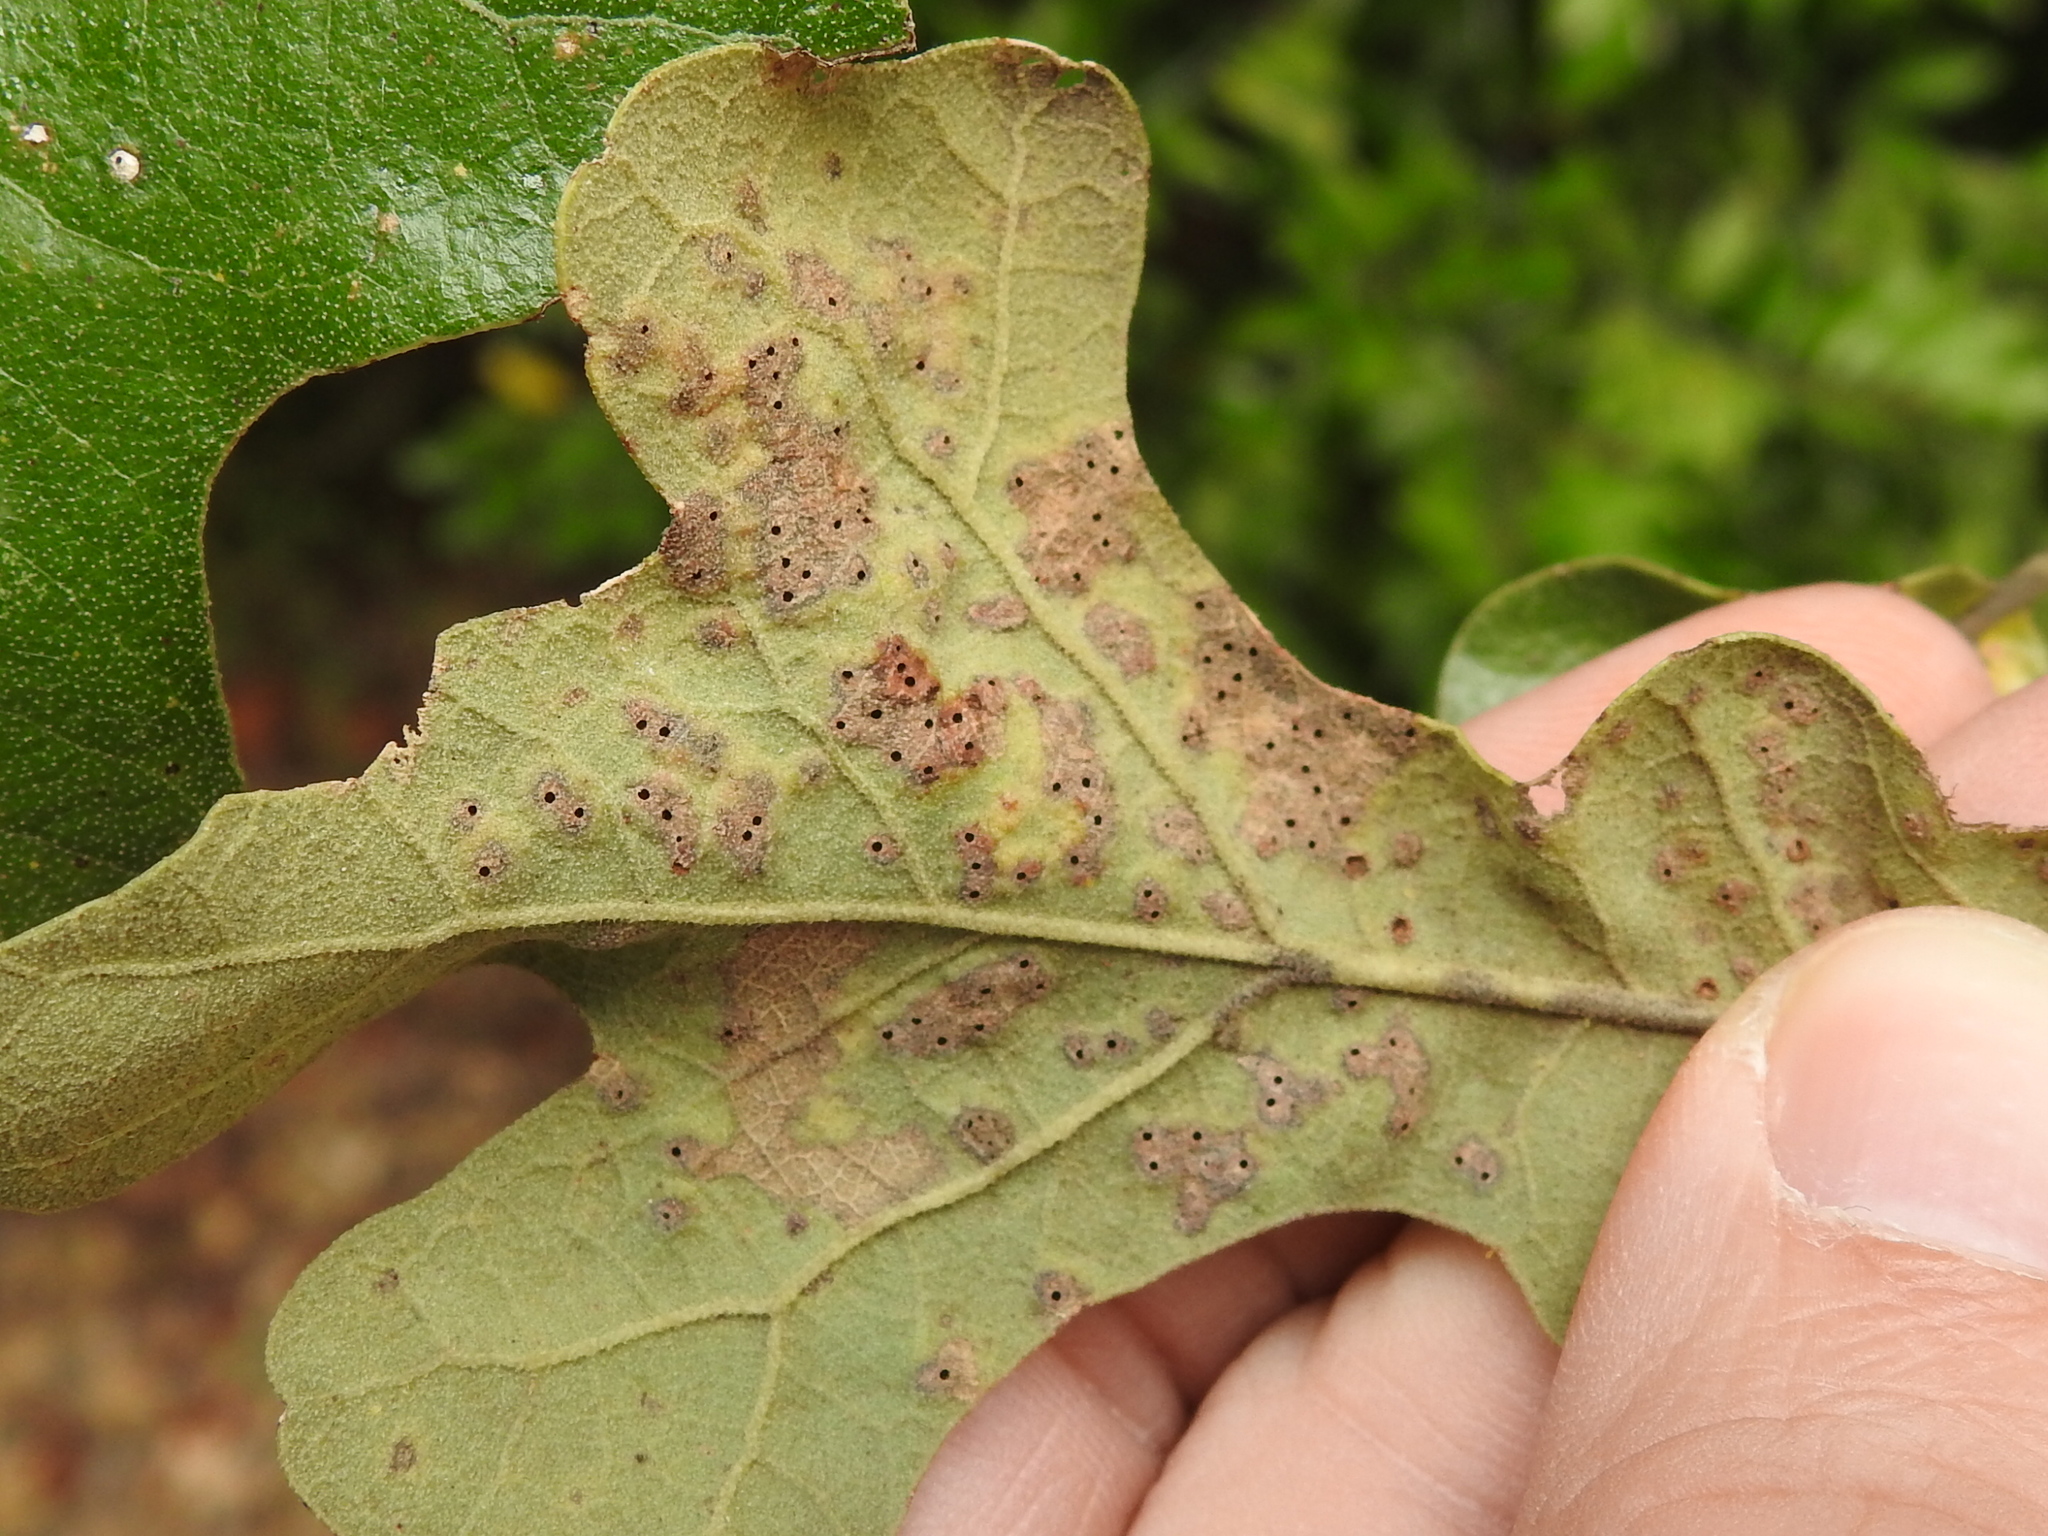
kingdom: Animalia
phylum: Arthropoda
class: Insecta
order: Hymenoptera
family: Cynipidae
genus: Neuroterus
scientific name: Neuroterus niger
